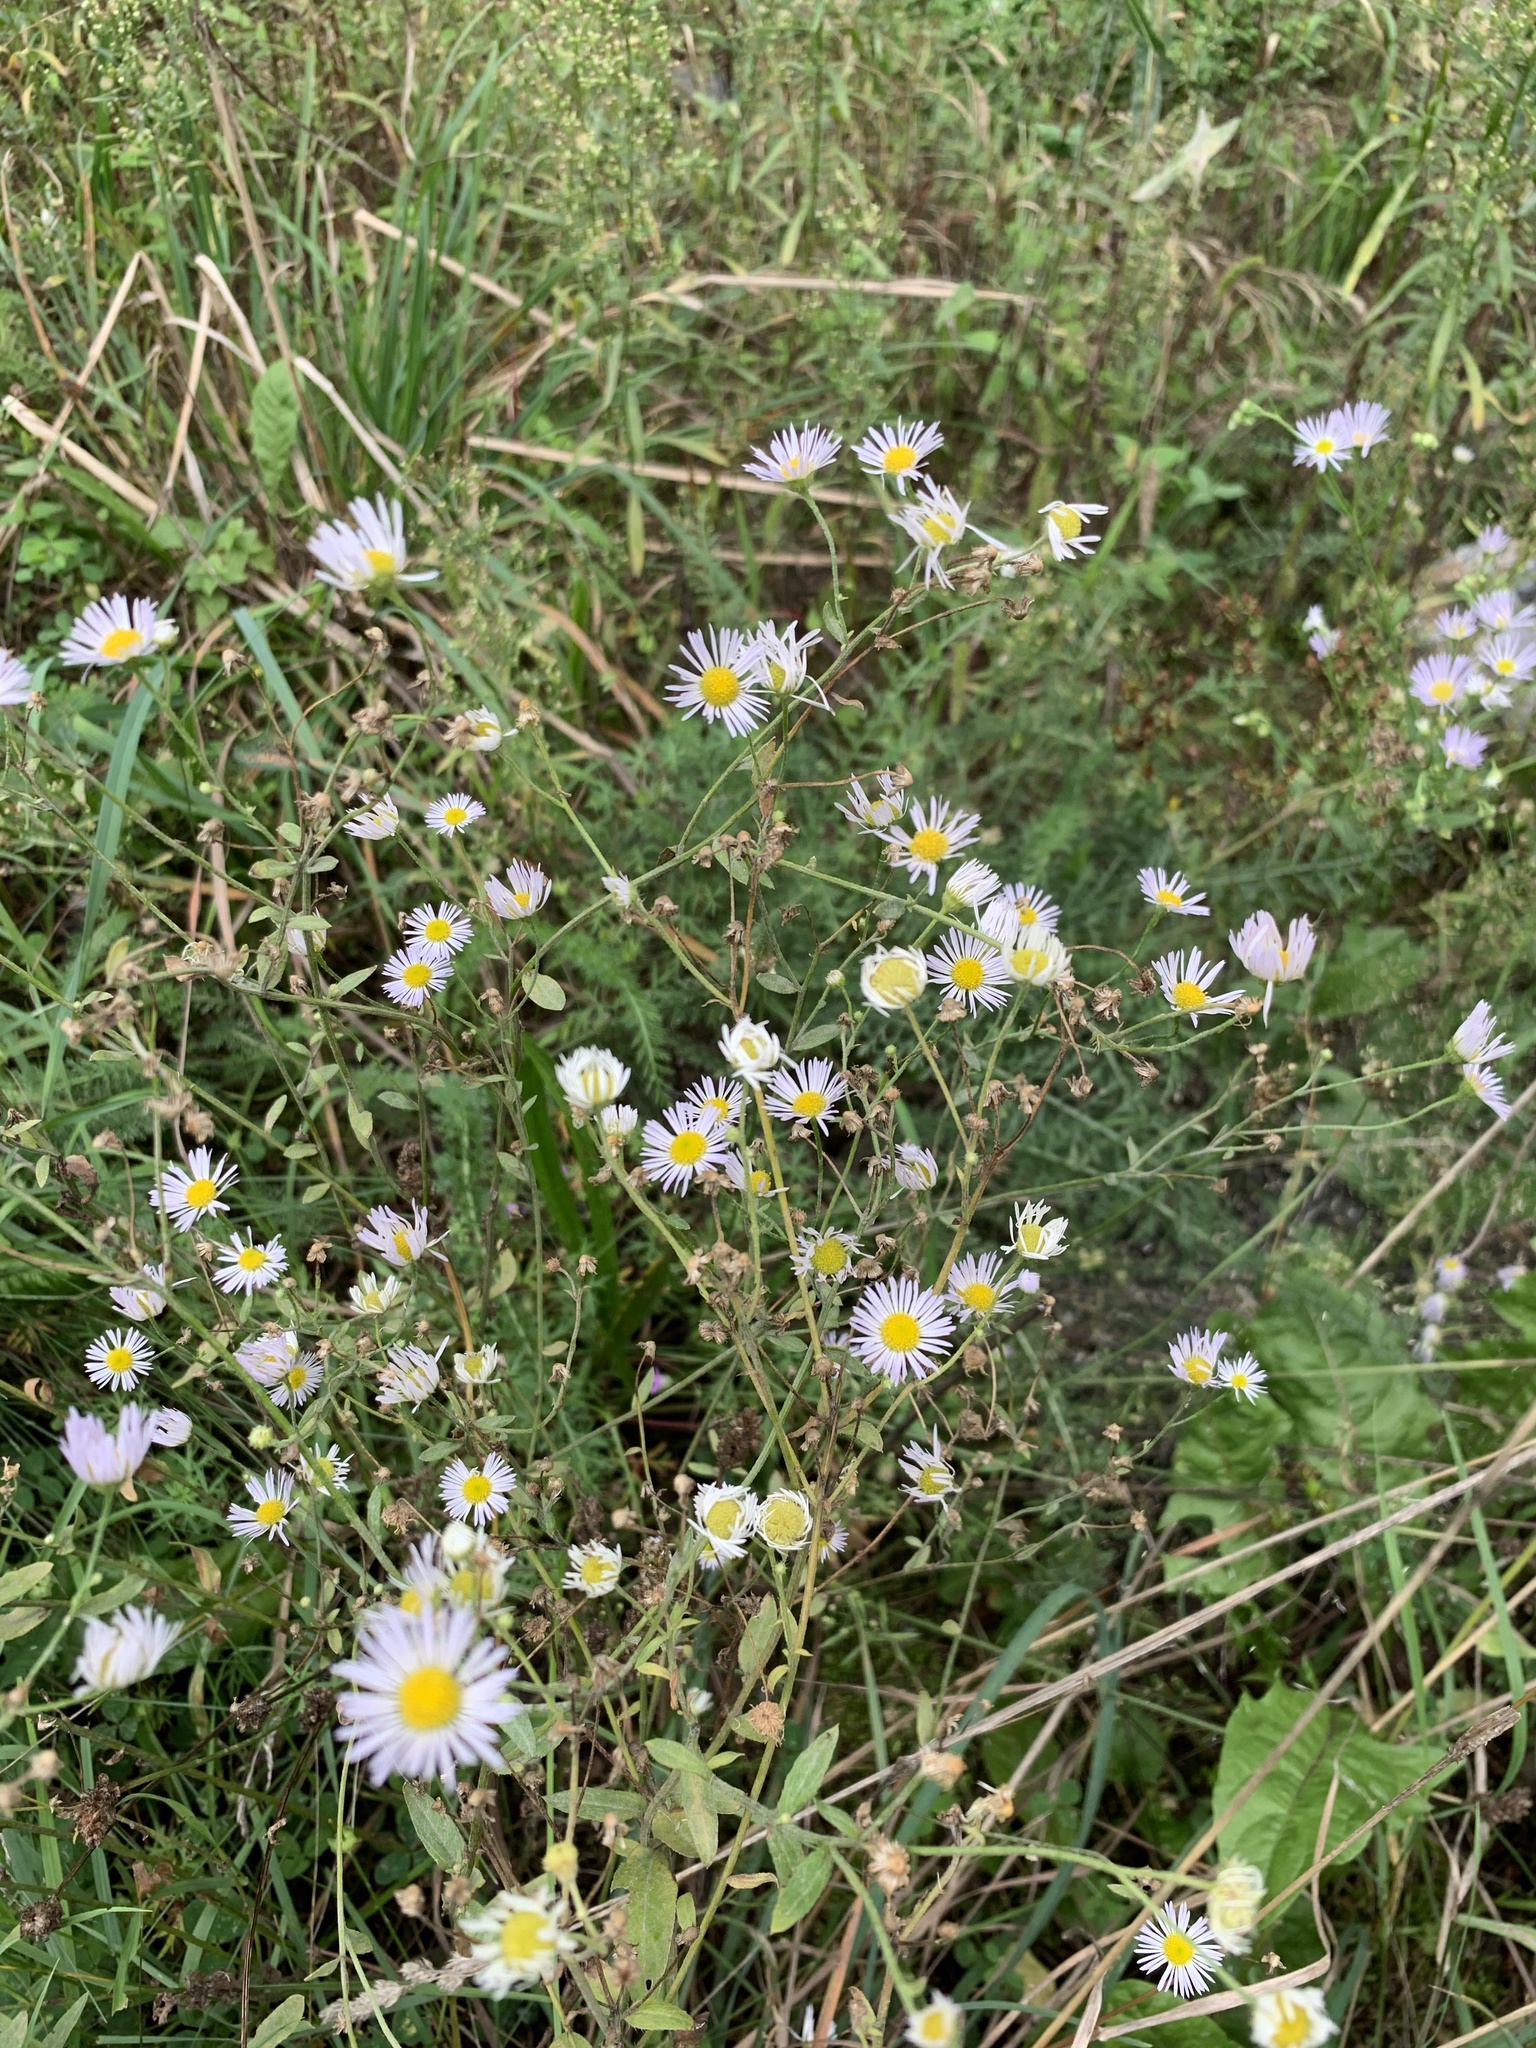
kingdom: Plantae
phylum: Tracheophyta
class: Magnoliopsida
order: Asterales
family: Asteraceae
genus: Erigeron
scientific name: Erigeron annuus
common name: Tall fleabane
